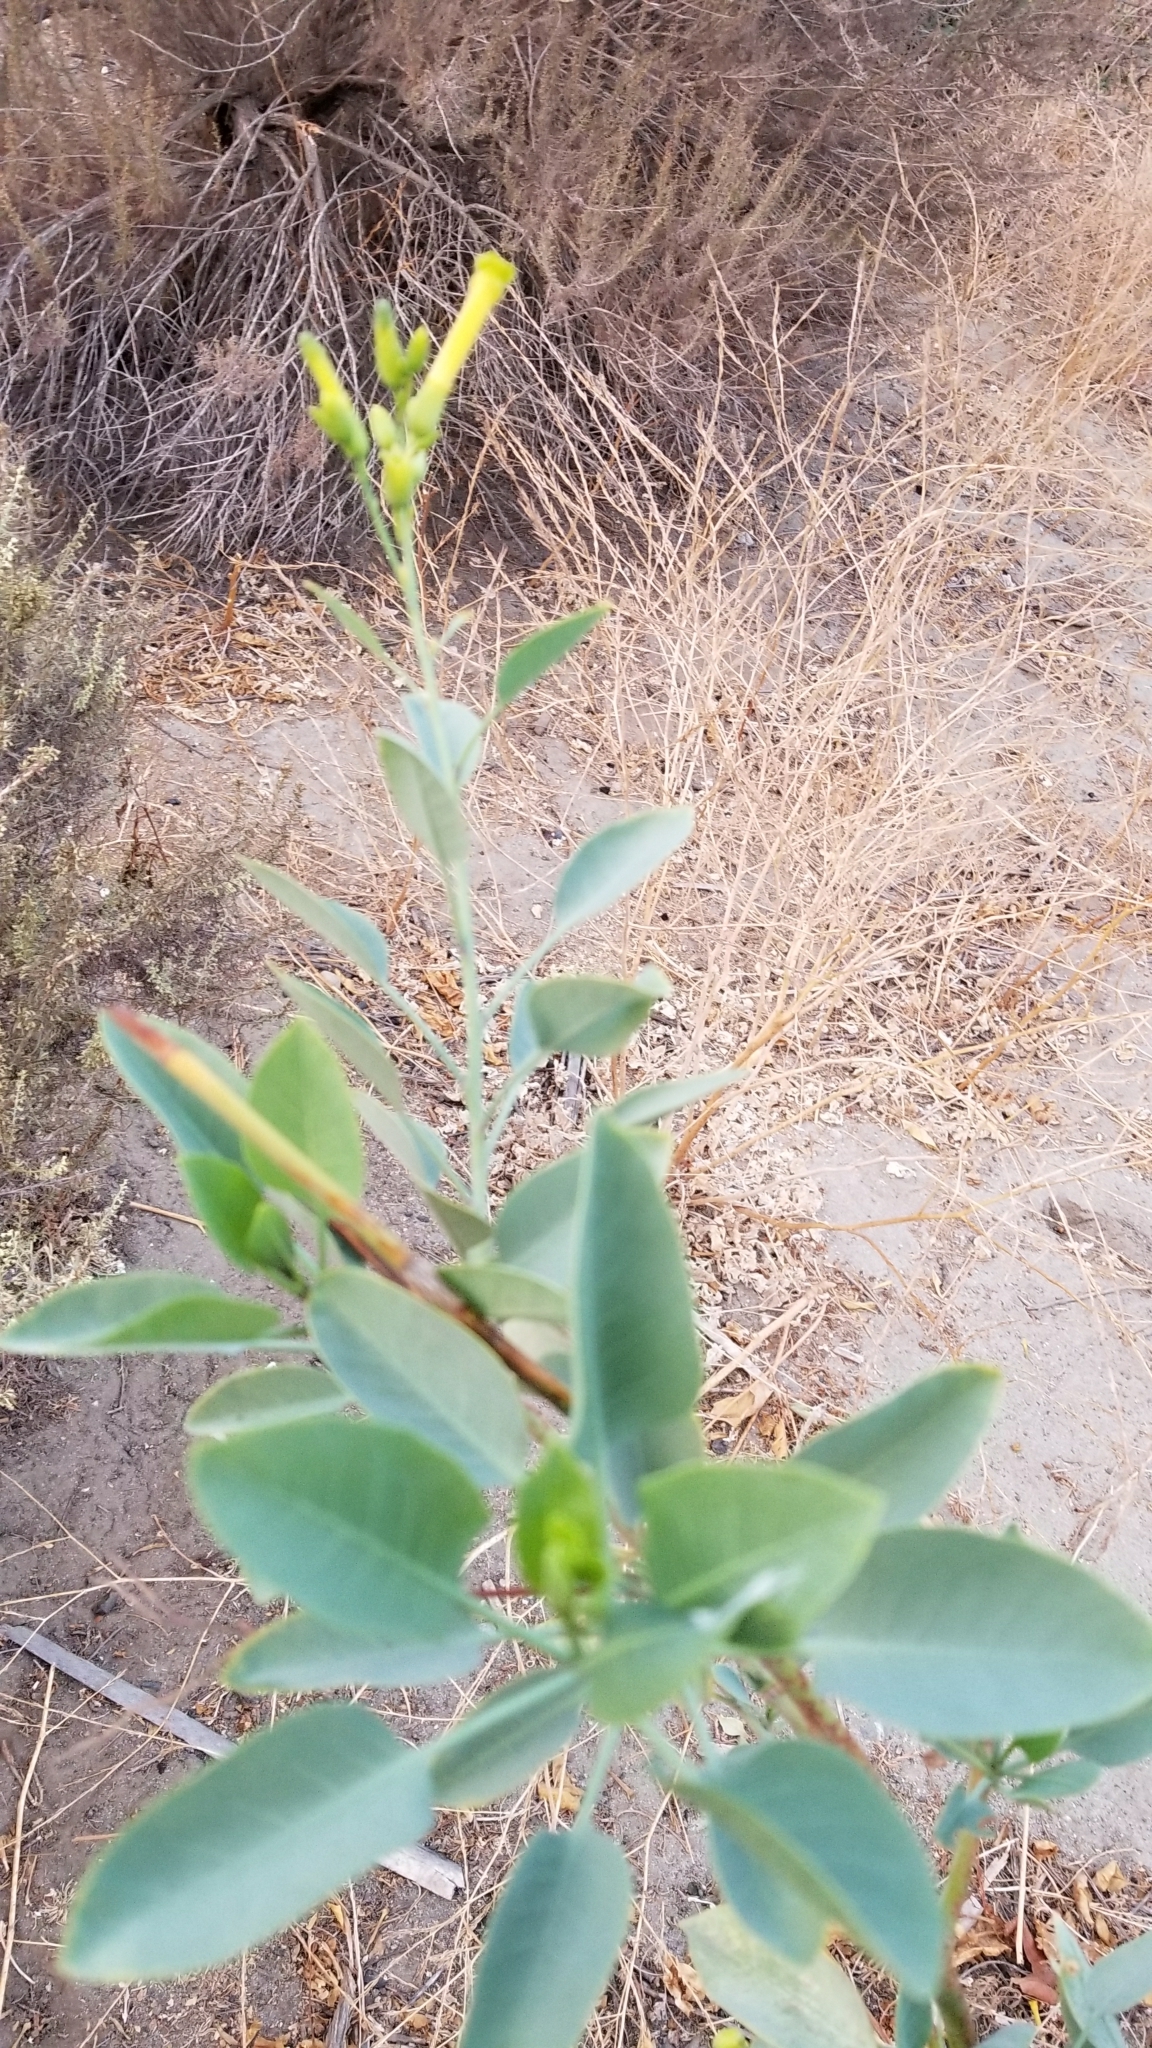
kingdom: Plantae
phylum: Tracheophyta
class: Magnoliopsida
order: Solanales
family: Solanaceae
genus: Nicotiana
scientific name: Nicotiana glauca
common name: Tree tobacco
